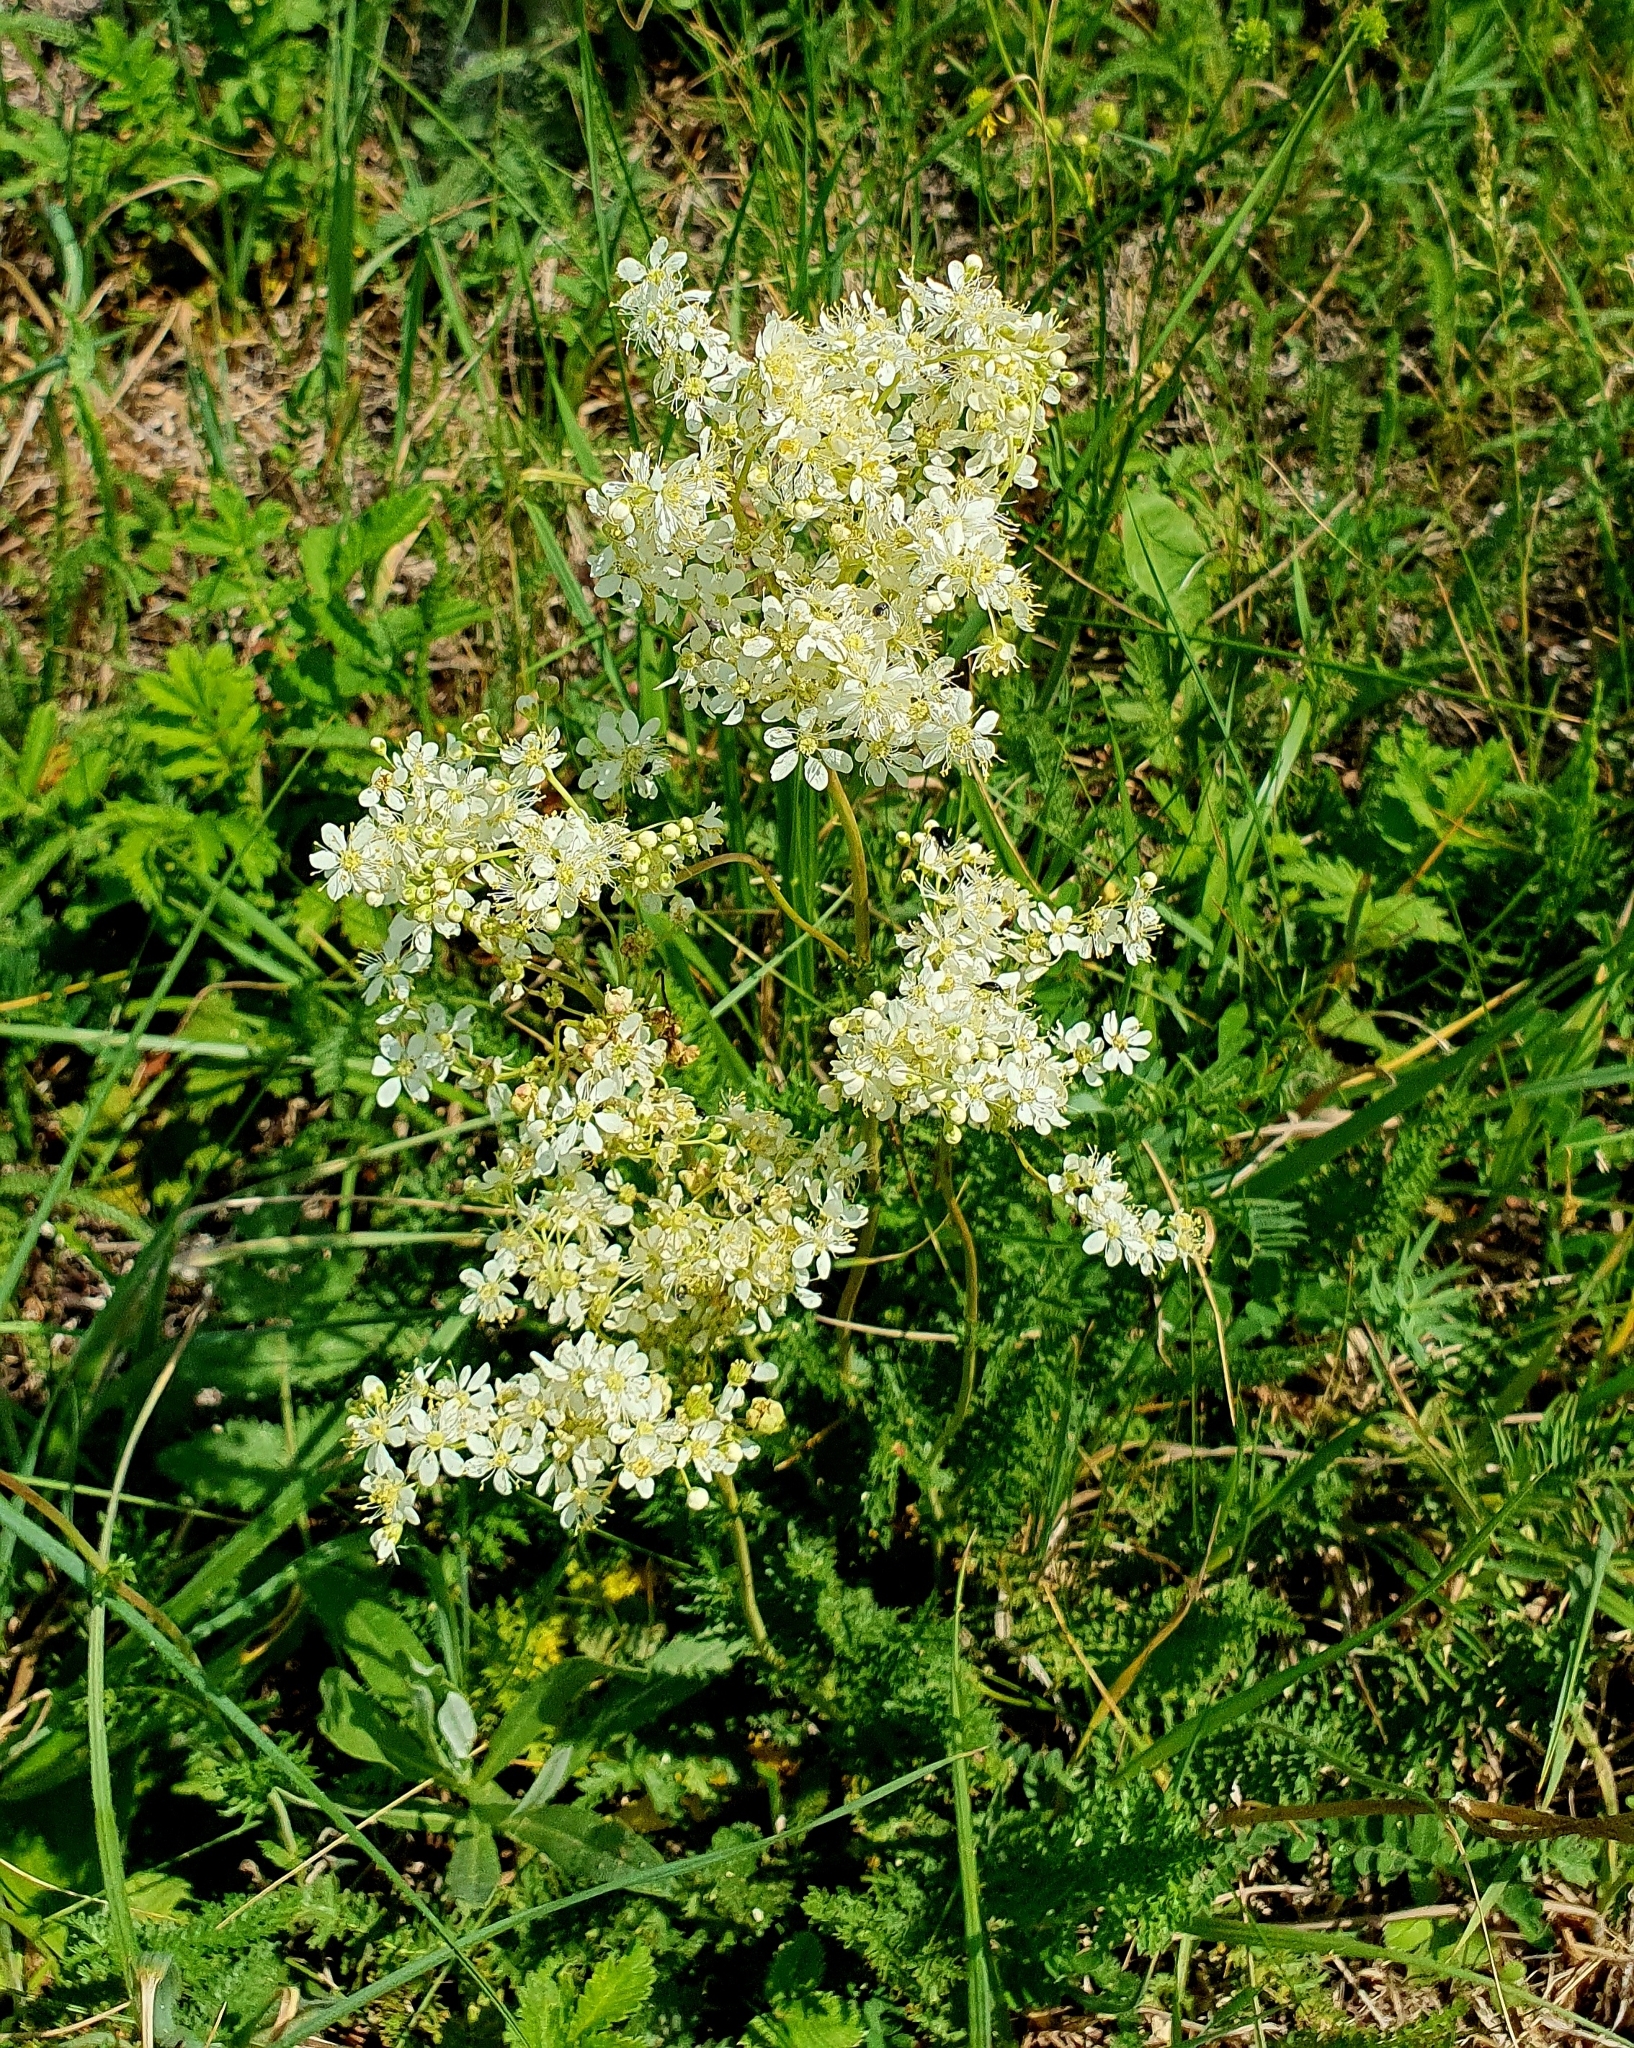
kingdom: Plantae
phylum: Tracheophyta
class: Magnoliopsida
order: Rosales
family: Rosaceae
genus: Filipendula
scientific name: Filipendula vulgaris
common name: Dropwort
